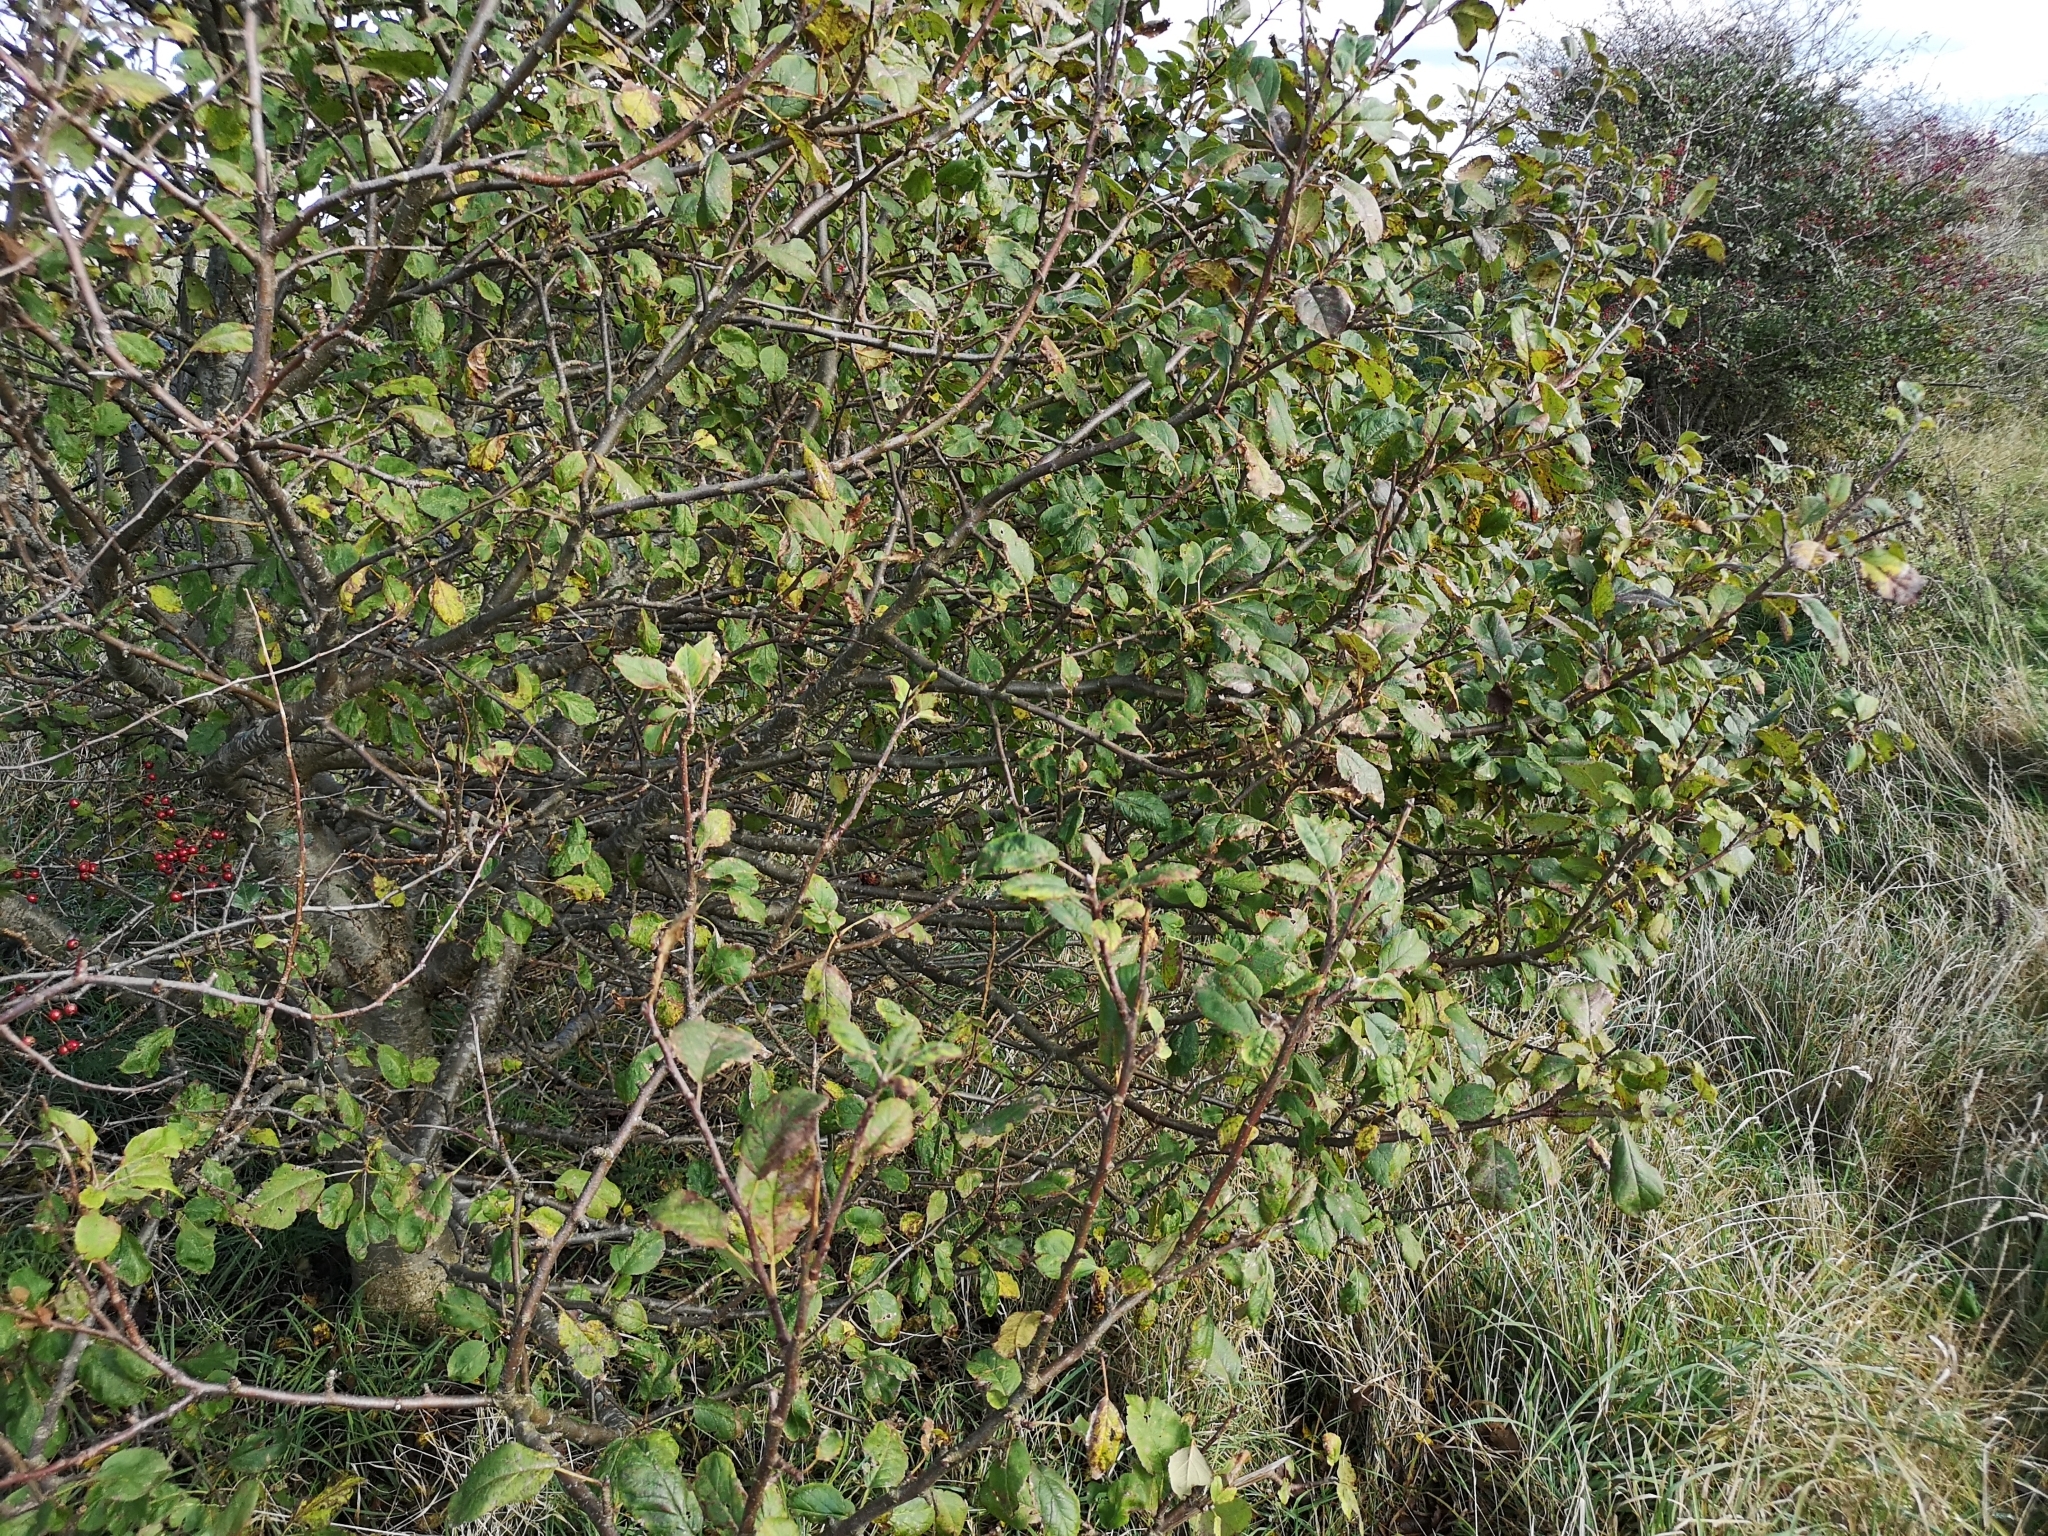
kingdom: Plantae
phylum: Tracheophyta
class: Magnoliopsida
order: Rosales
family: Rosaceae
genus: Malus
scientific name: Malus domestica
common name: Apple
